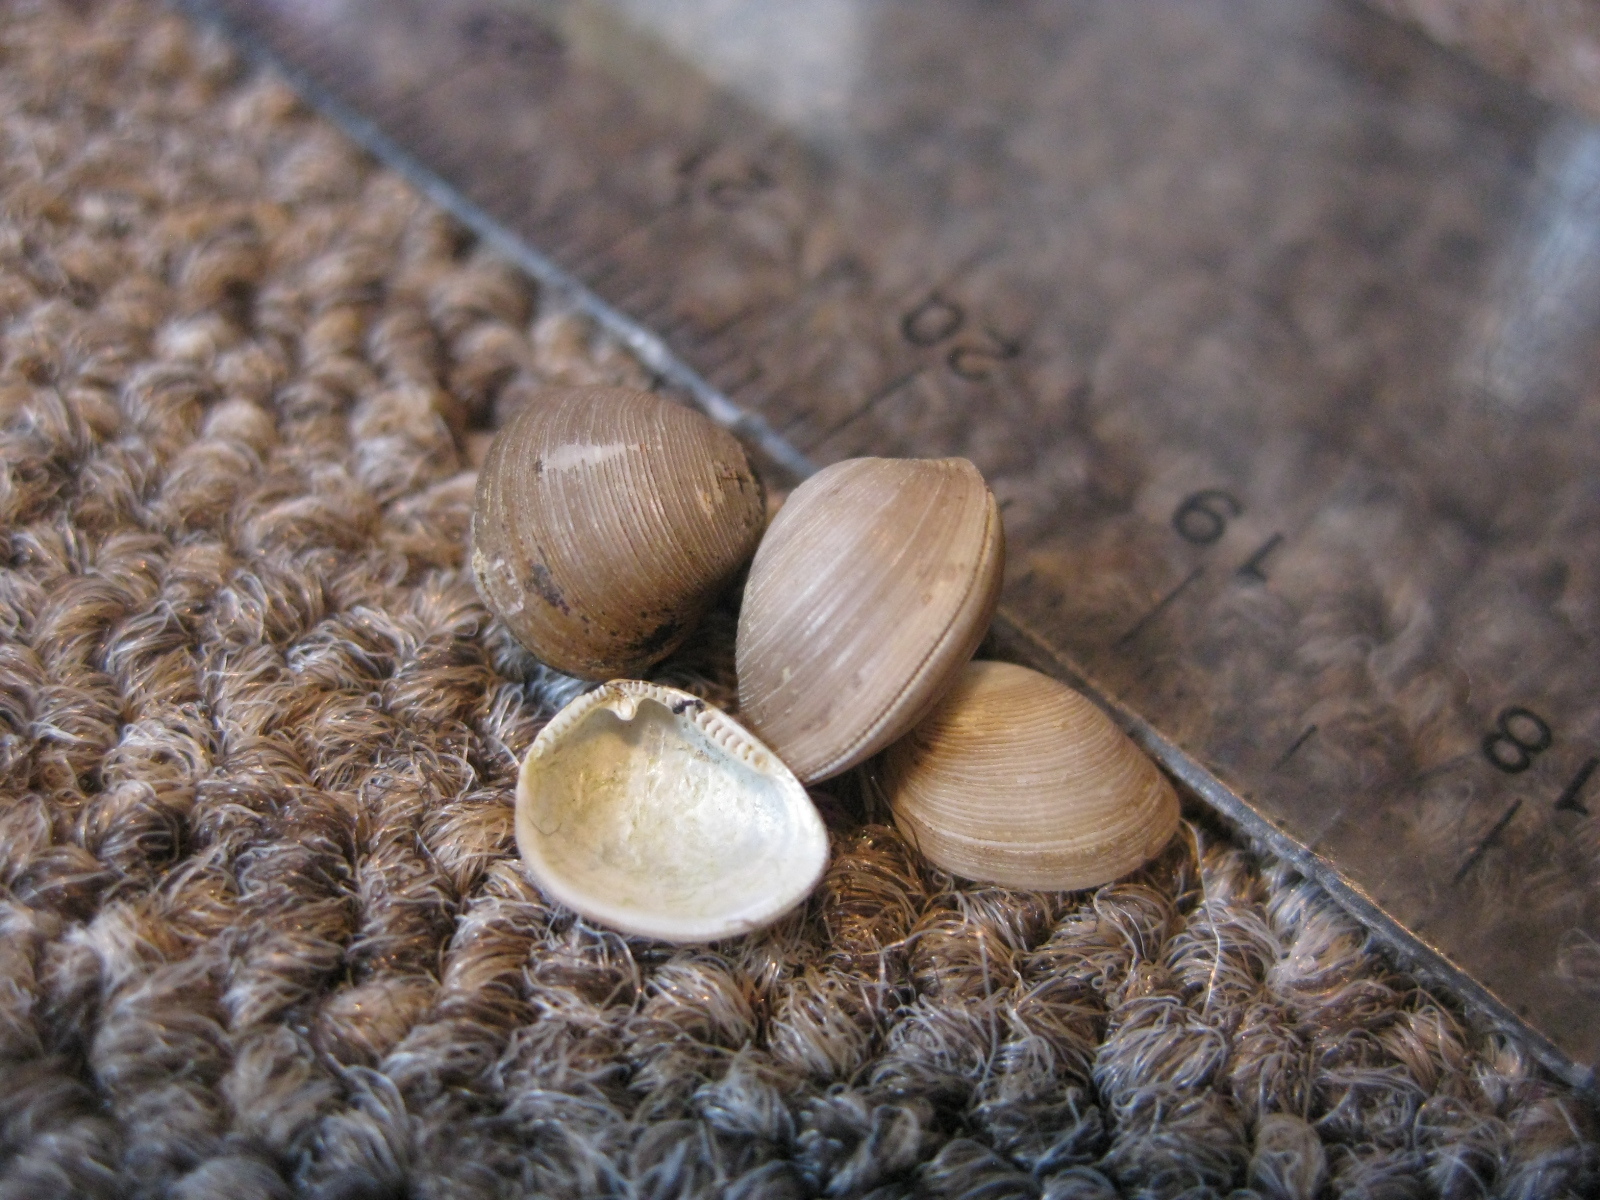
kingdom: Animalia
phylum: Mollusca
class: Bivalvia
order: Nuculida
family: Nuculidae
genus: Linucula
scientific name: Linucula hartvigiana
